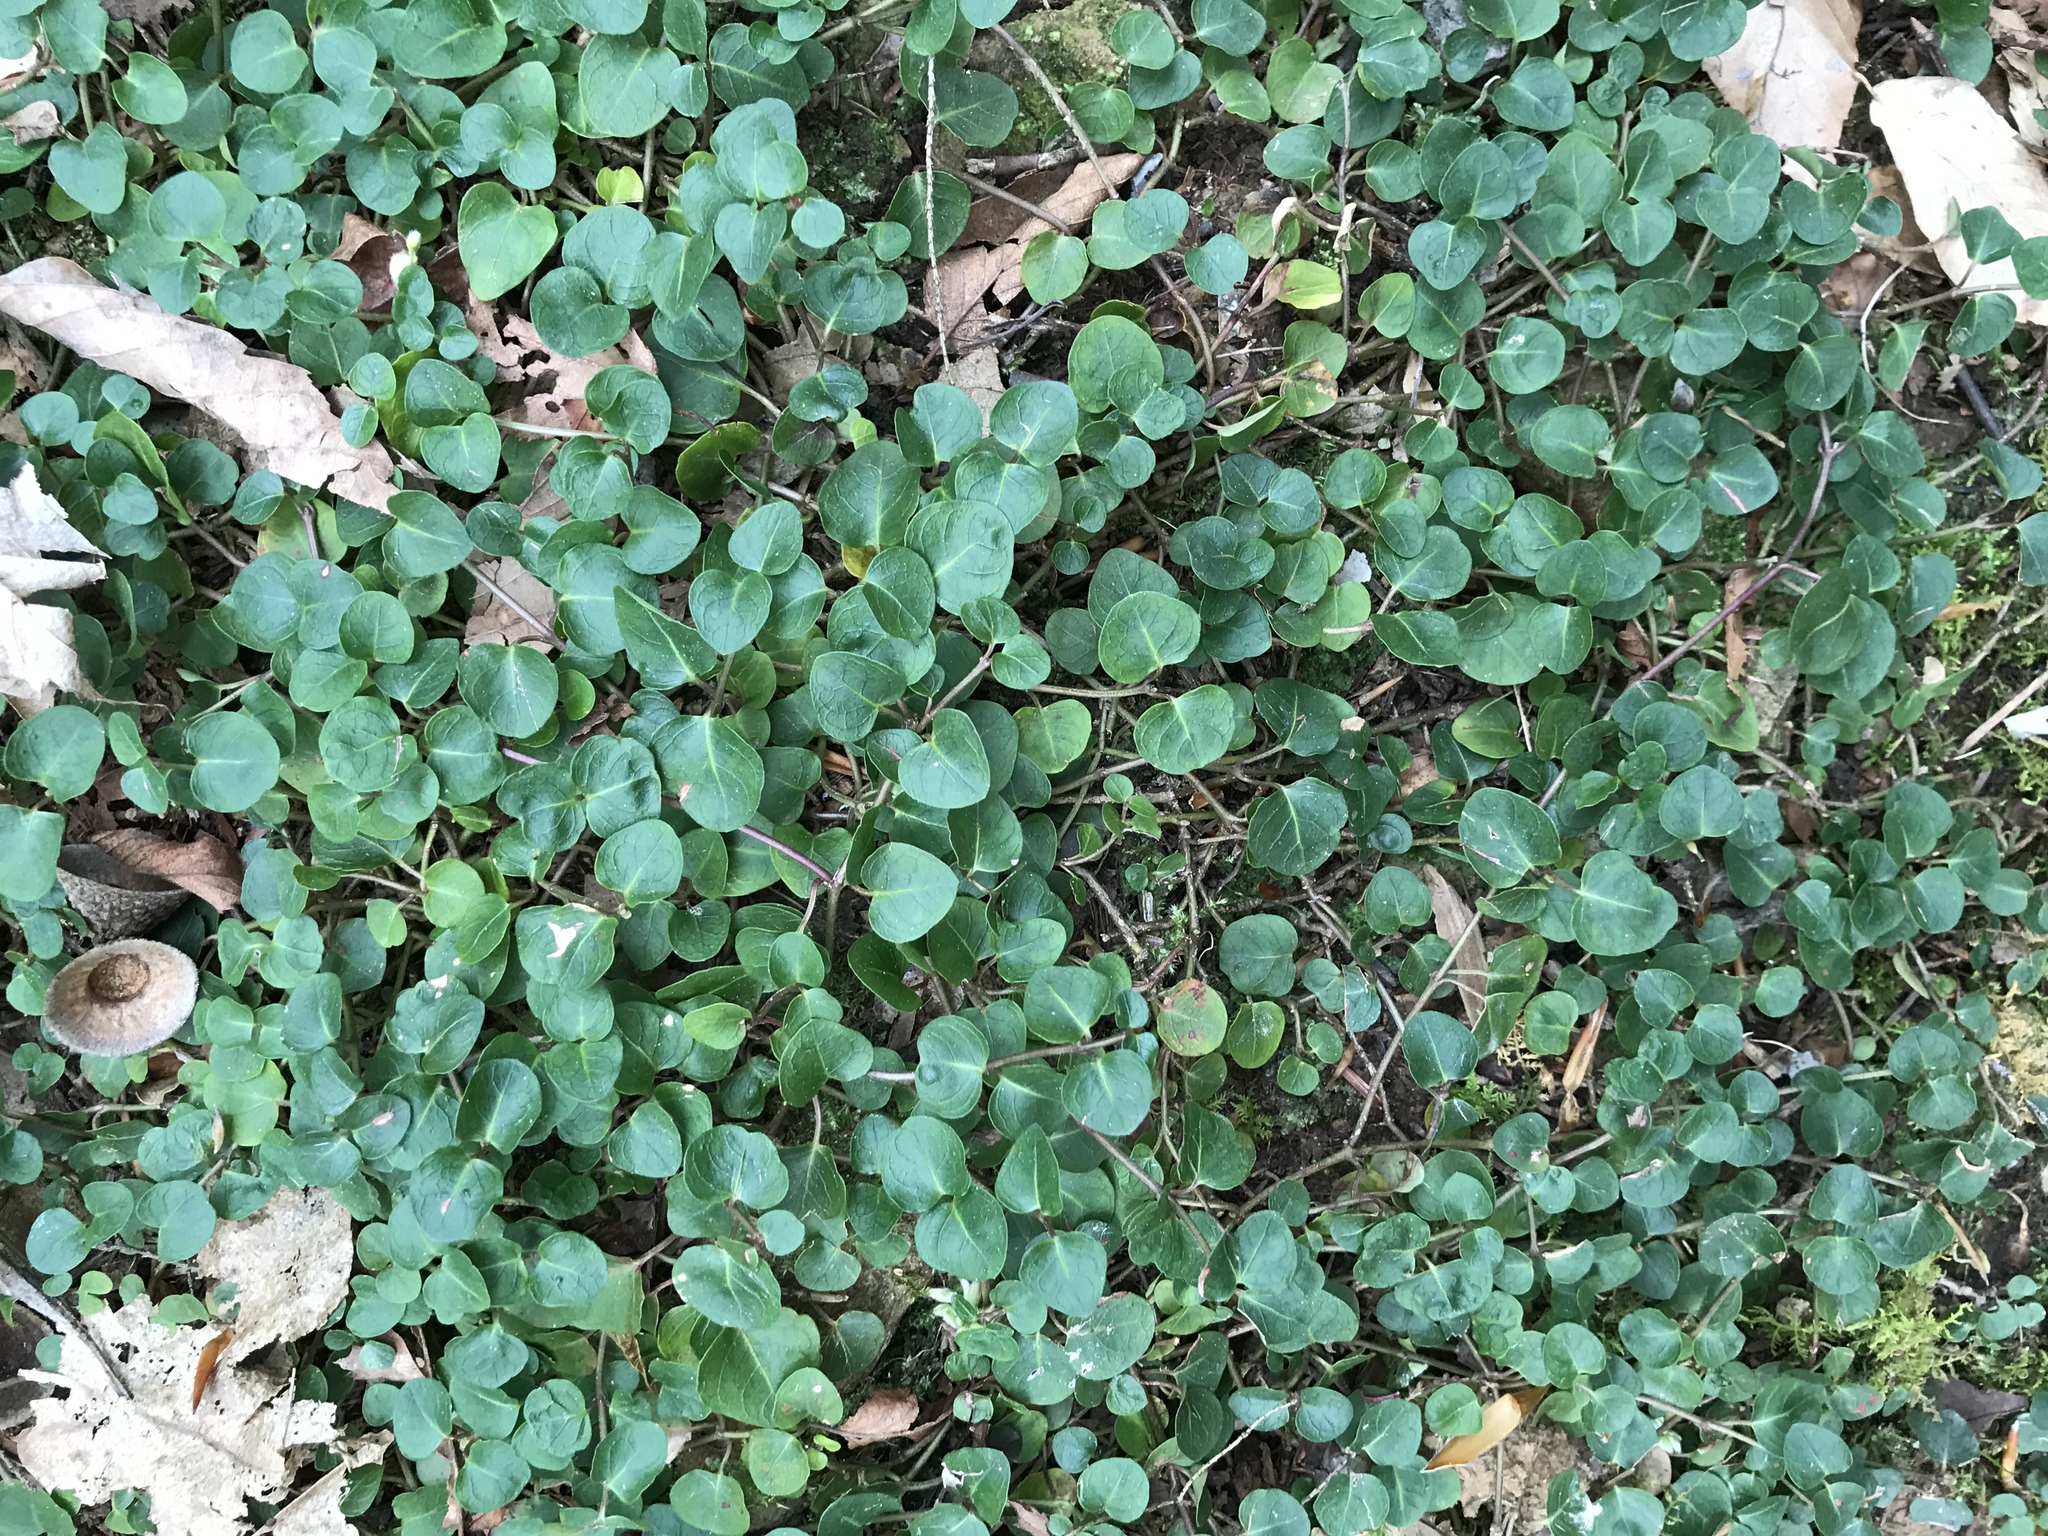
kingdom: Plantae
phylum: Tracheophyta
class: Magnoliopsida
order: Gentianales
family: Rubiaceae
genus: Mitchella
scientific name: Mitchella repens
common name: Partridge-berry
